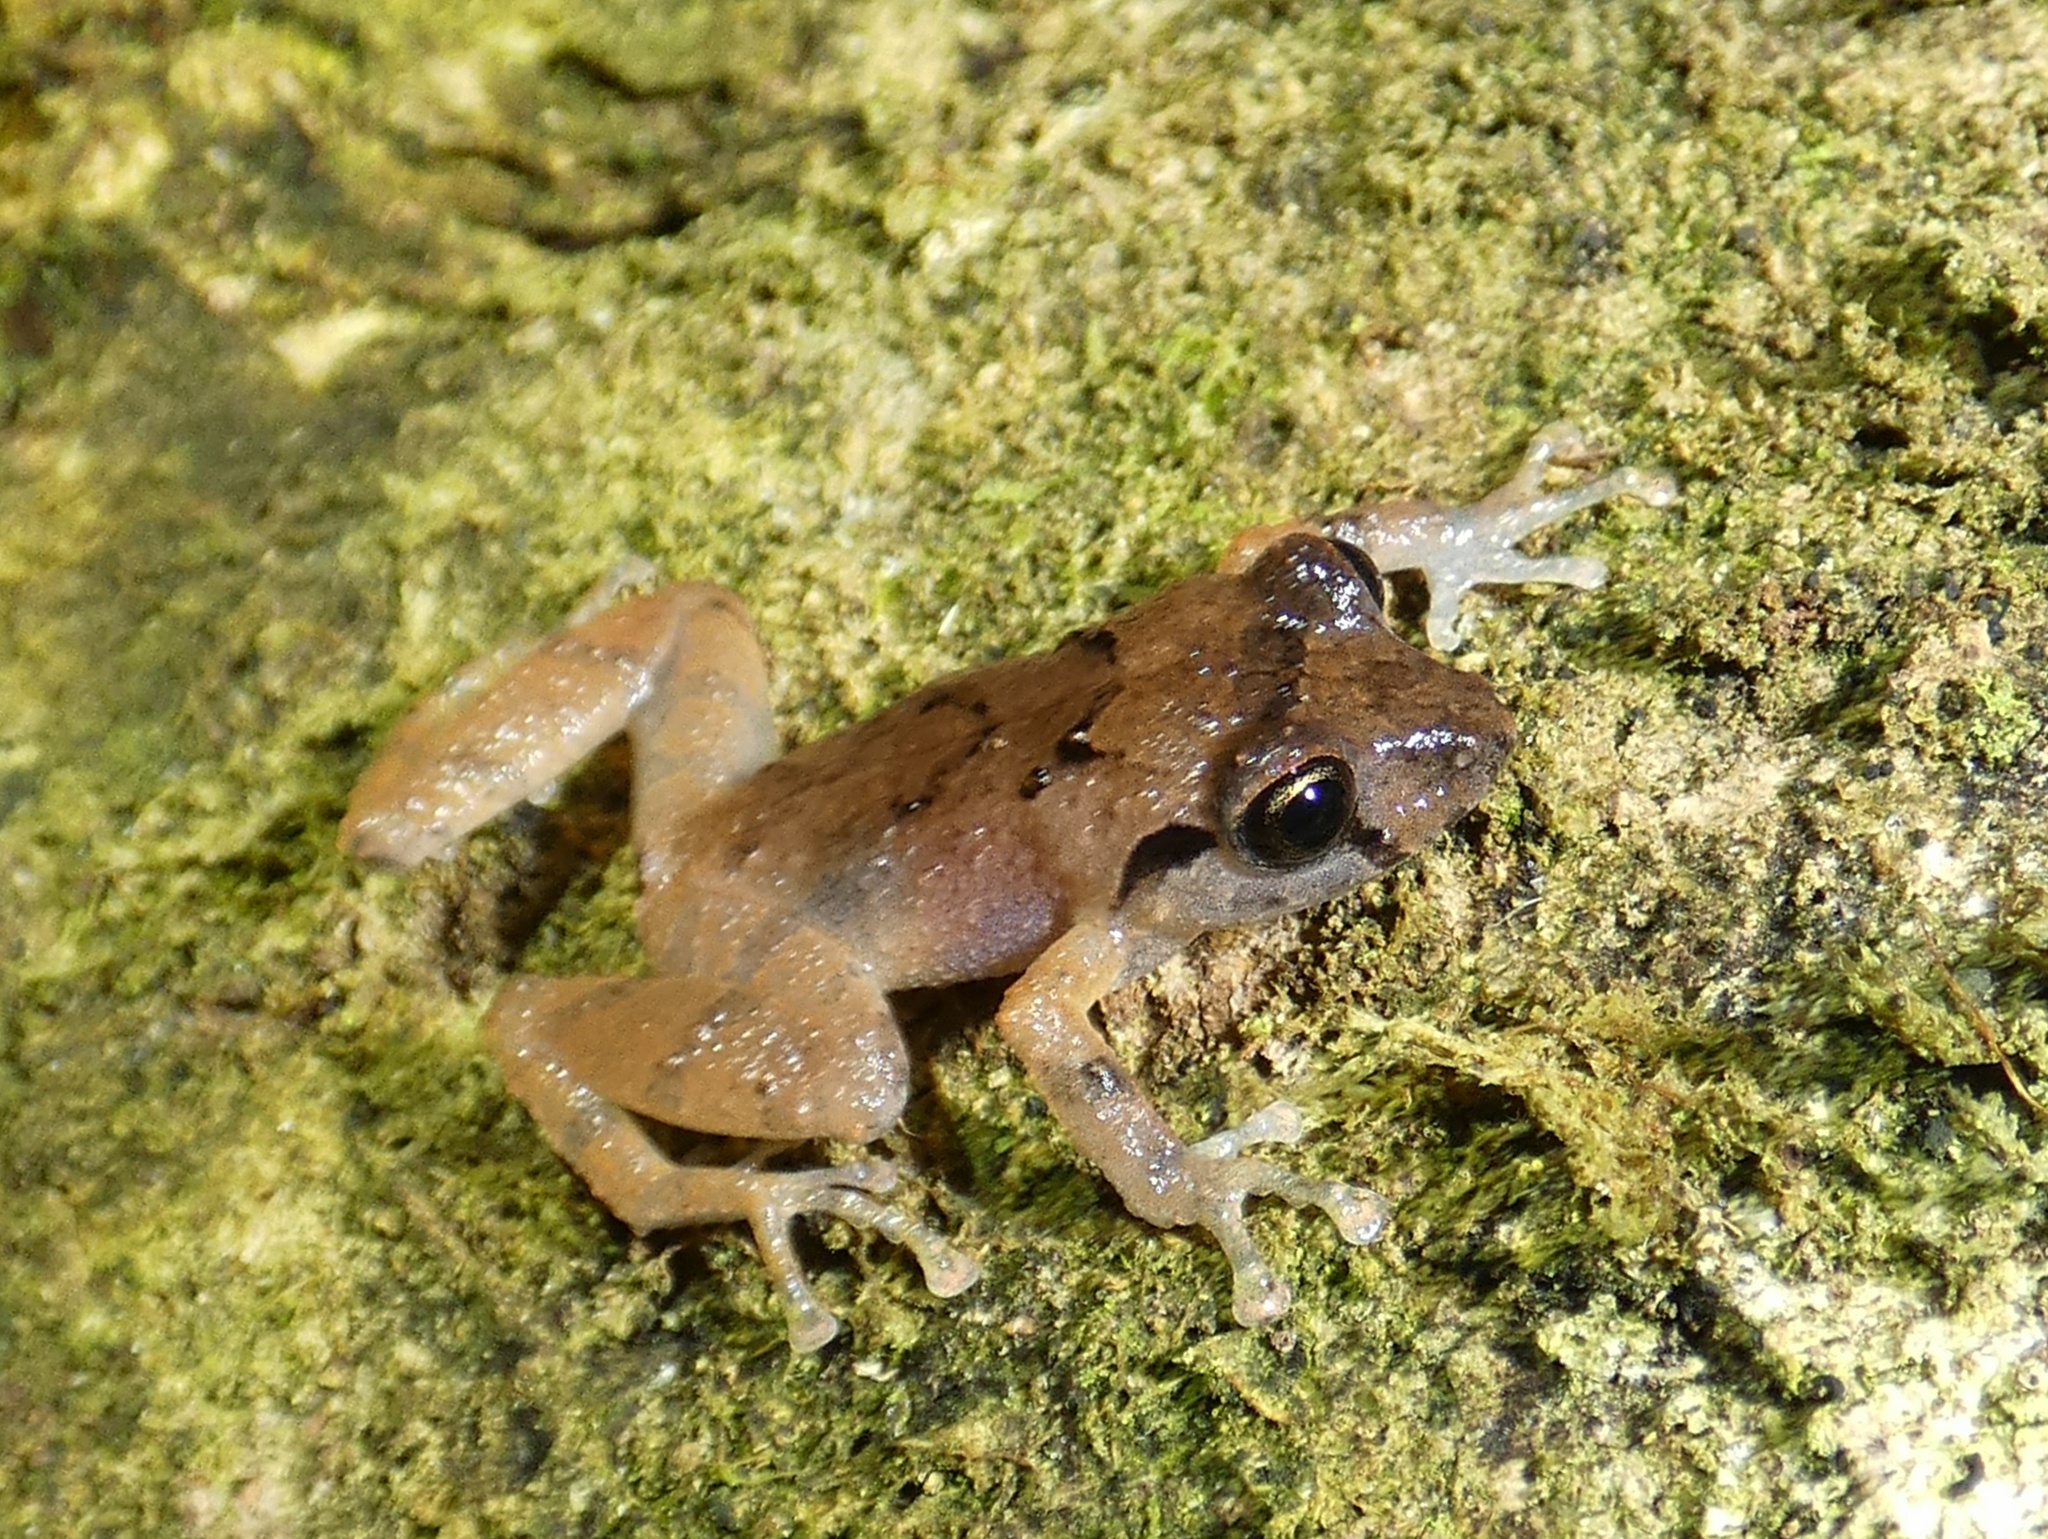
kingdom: Animalia
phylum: Chordata
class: Amphibia
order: Anura
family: Craugastoridae
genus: Pristimantis
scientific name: Pristimantis taeniatus
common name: Banded robber frog
